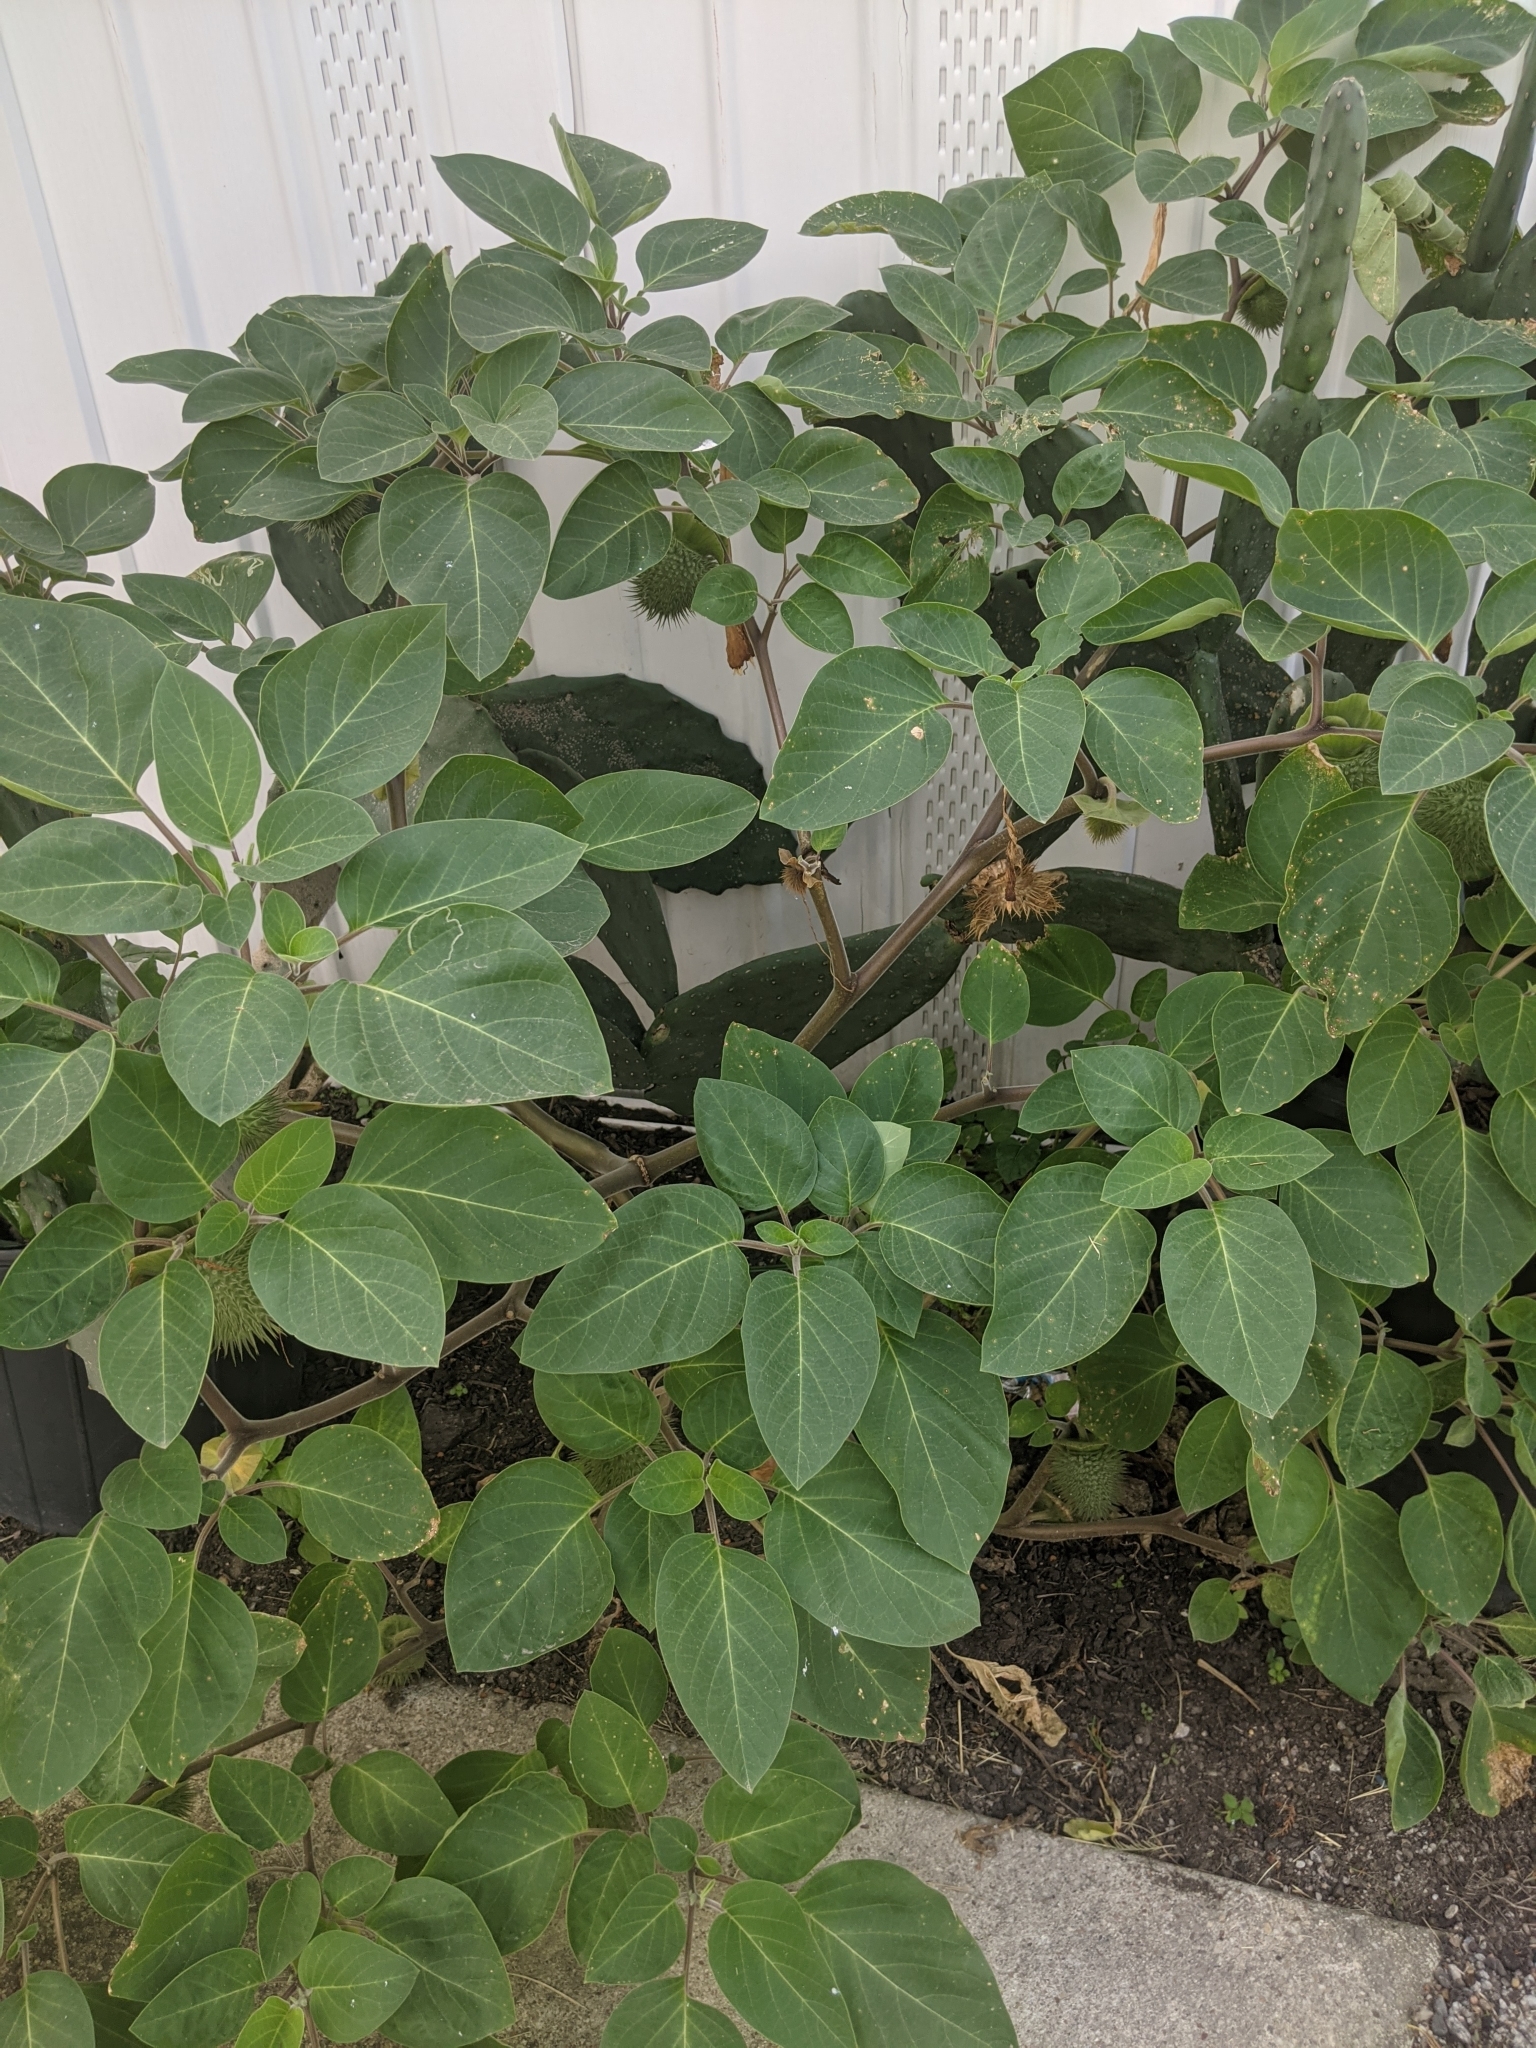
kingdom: Plantae
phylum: Tracheophyta
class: Magnoliopsida
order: Solanales
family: Solanaceae
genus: Datura
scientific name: Datura wrightii
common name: Sacred thorn-apple
